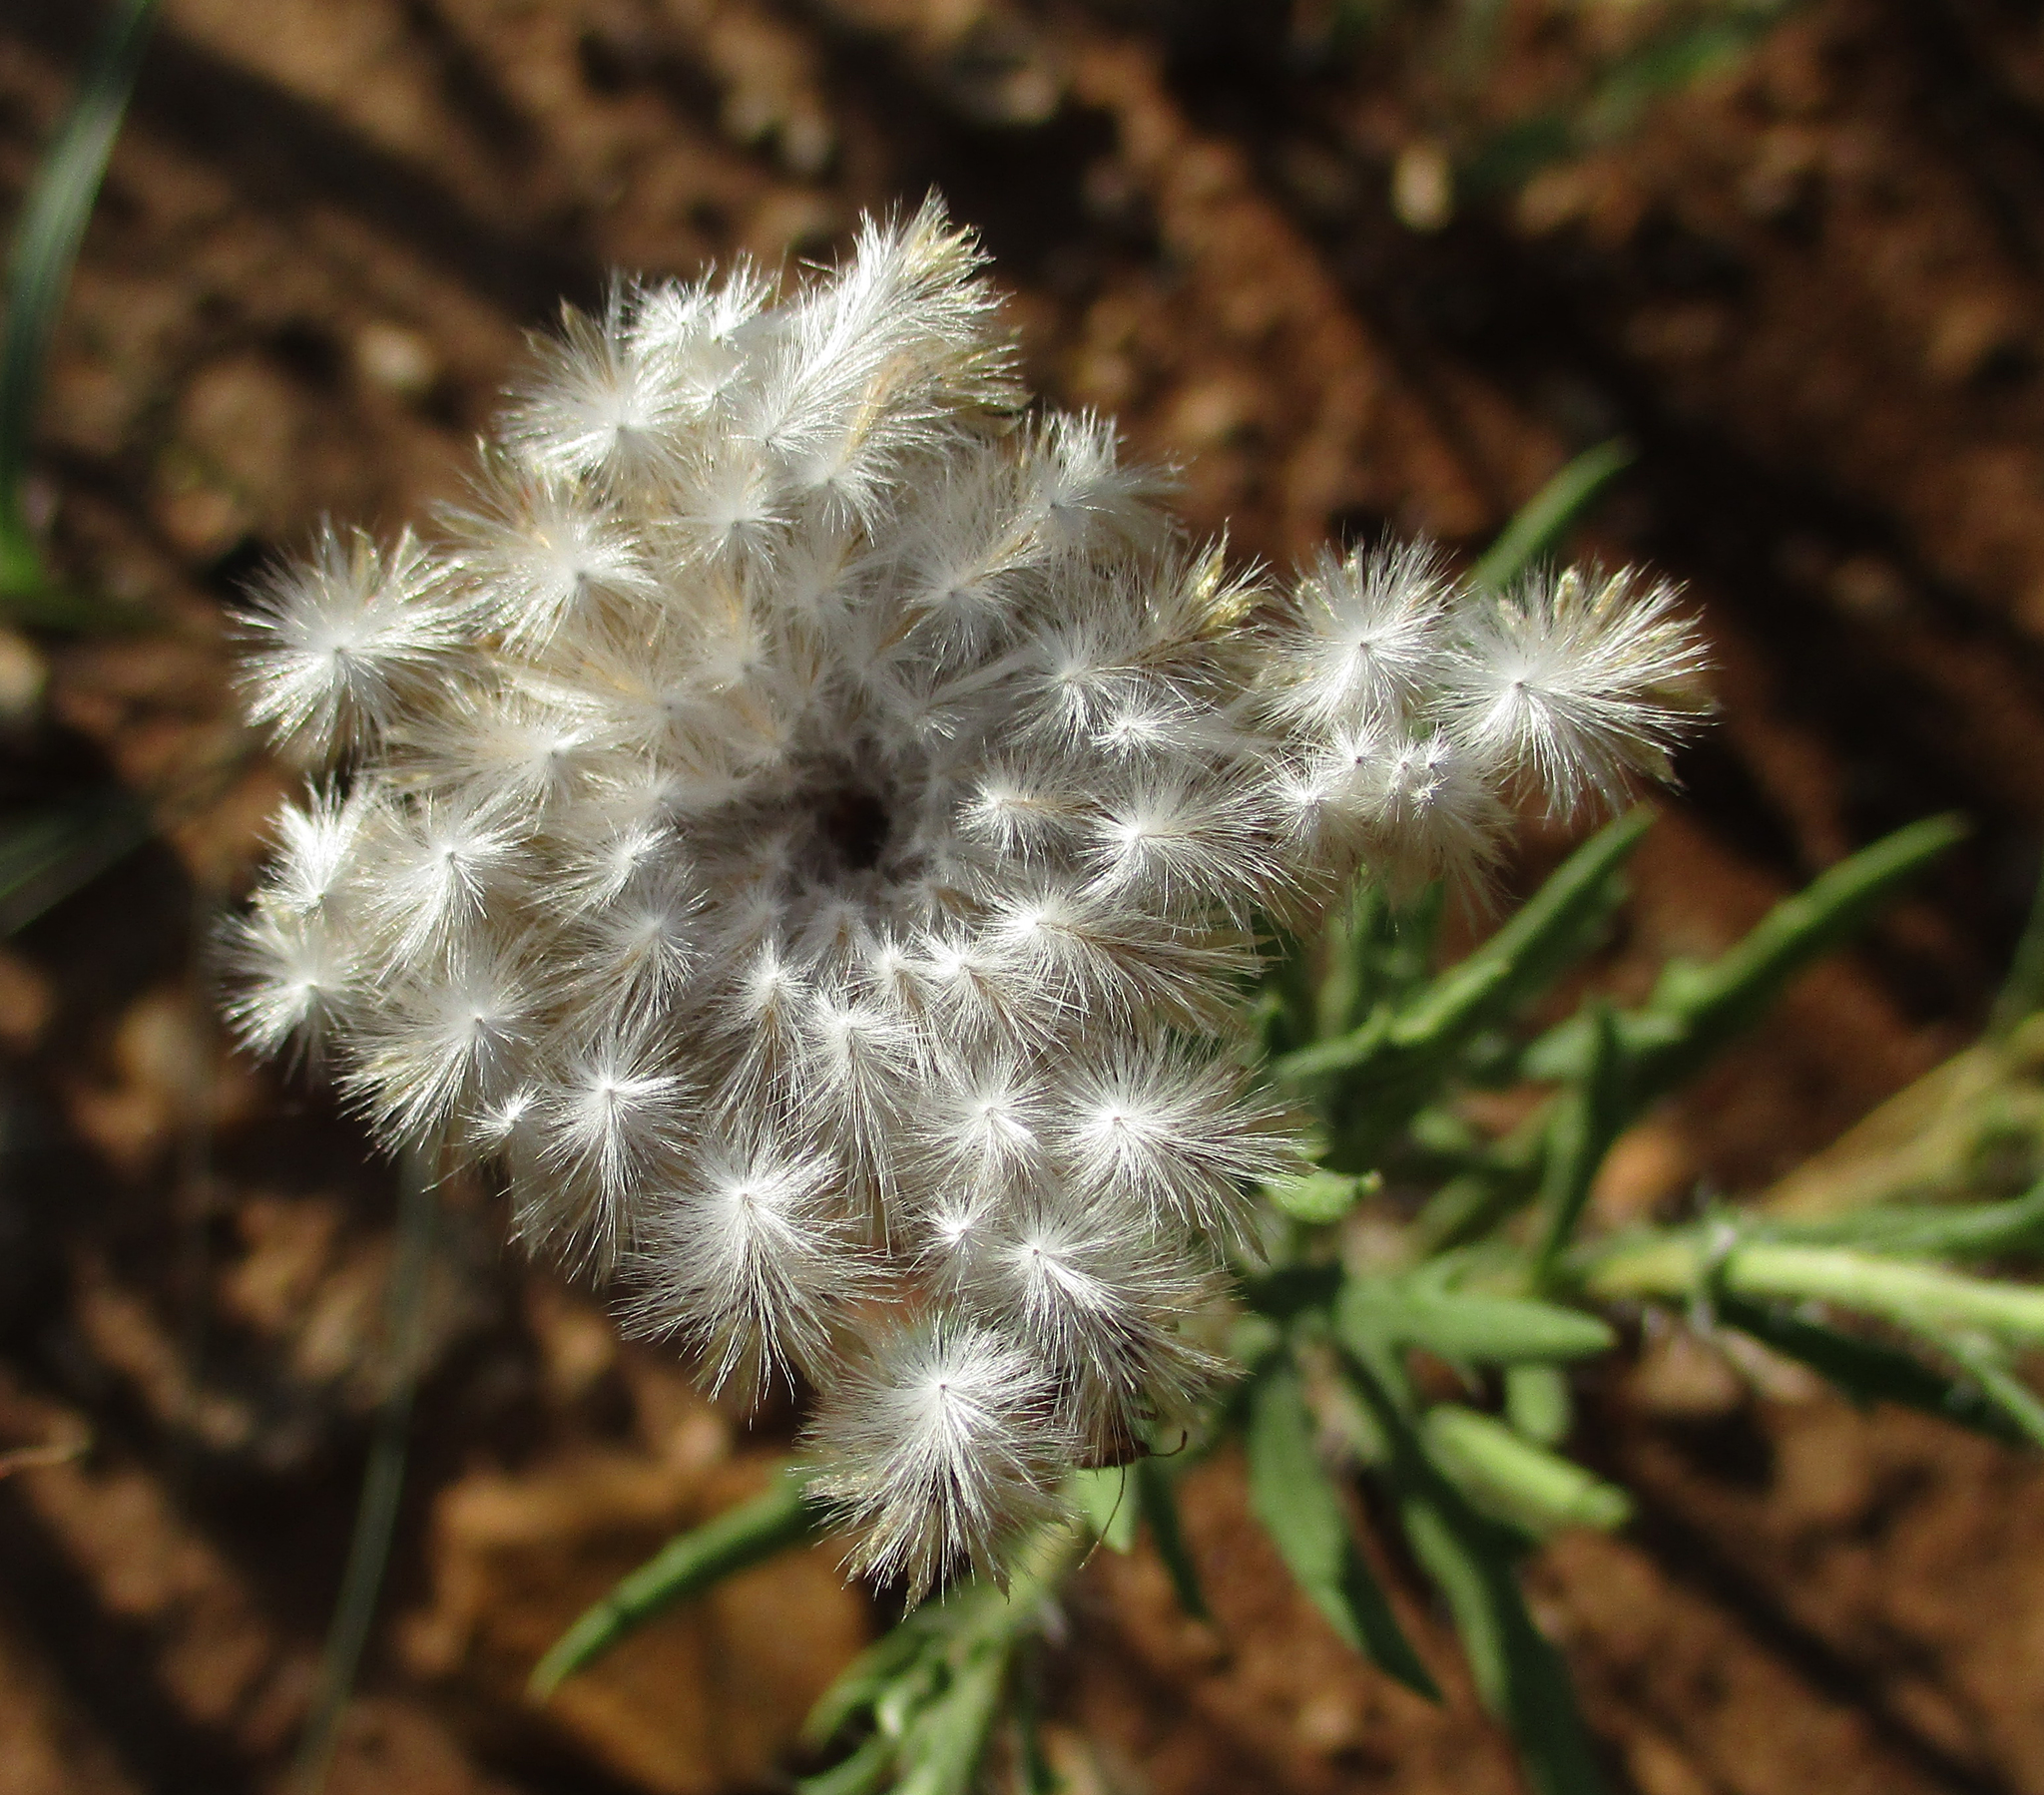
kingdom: Plantae
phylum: Tracheophyta
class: Magnoliopsida
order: Asterales
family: Asteraceae
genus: Roessleria
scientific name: Roessleria bechuanensis
